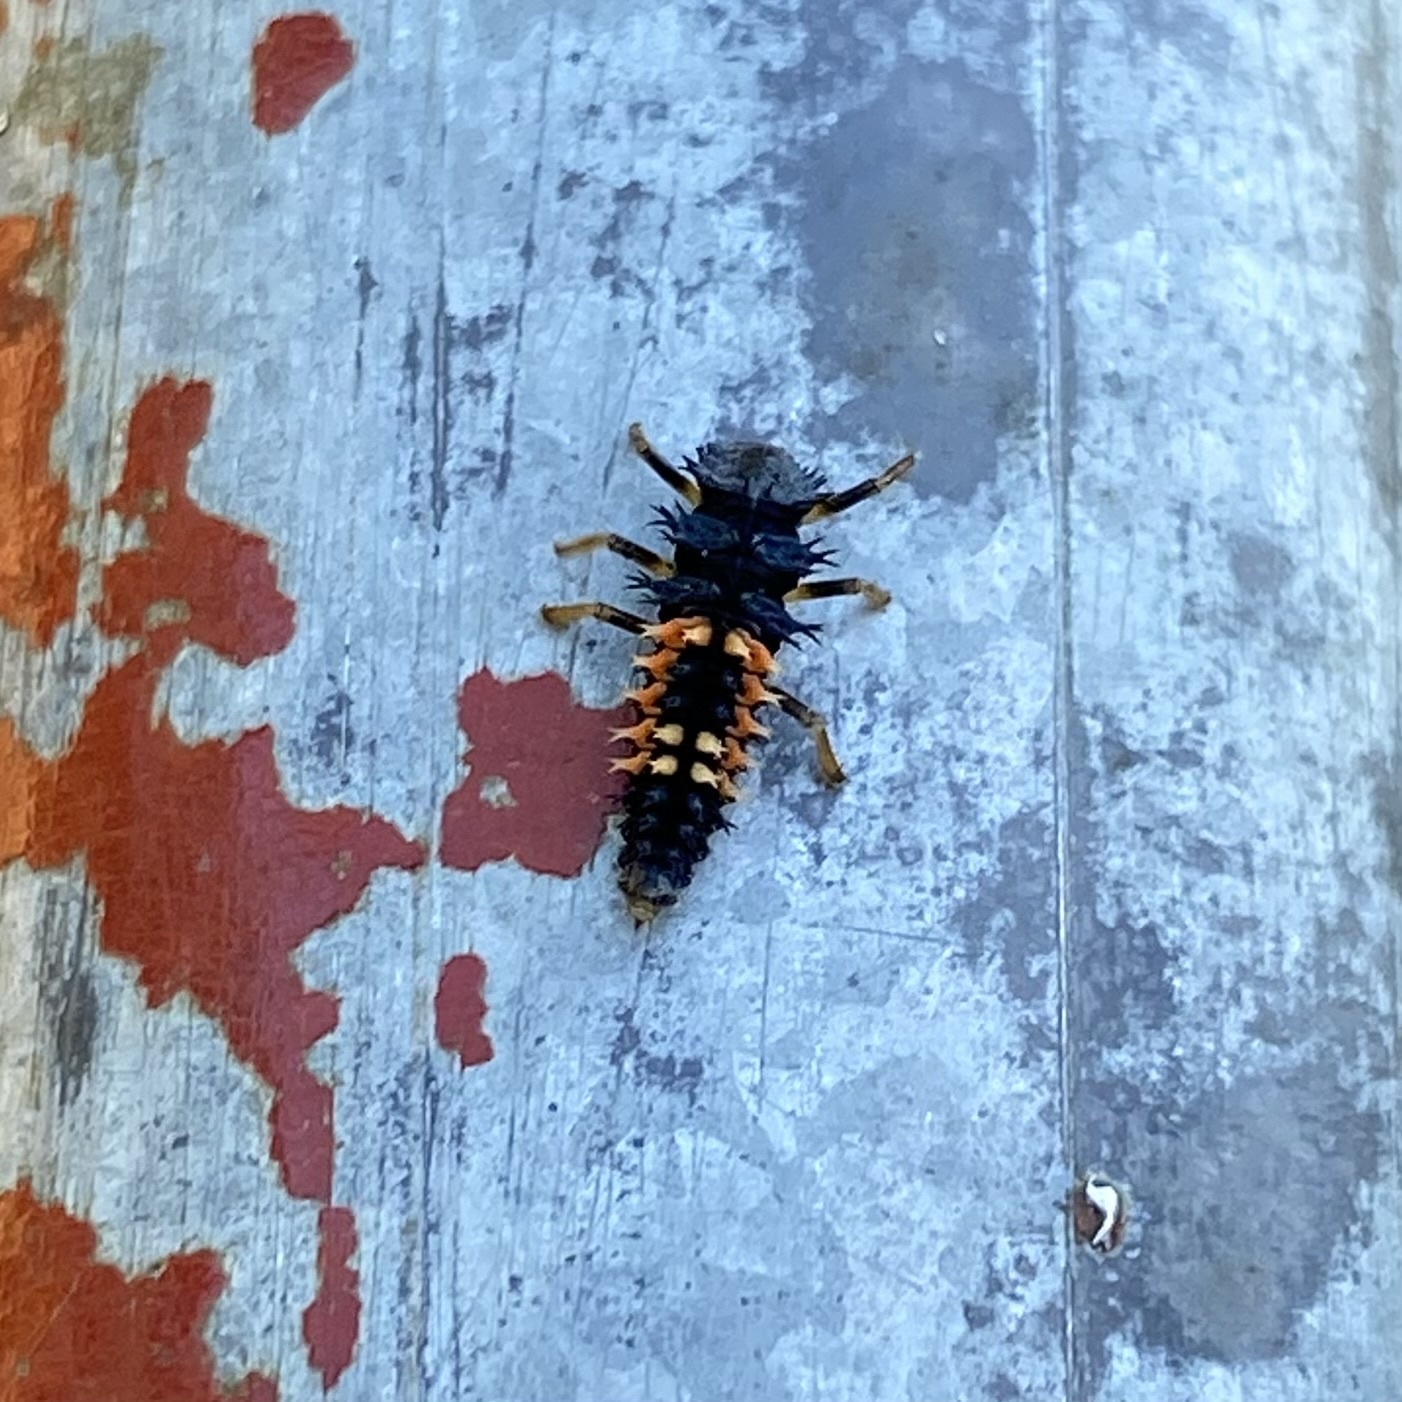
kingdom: Animalia
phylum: Arthropoda
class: Insecta
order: Coleoptera
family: Coccinellidae
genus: Harmonia
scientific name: Harmonia axyridis
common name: Harlequin ladybird
